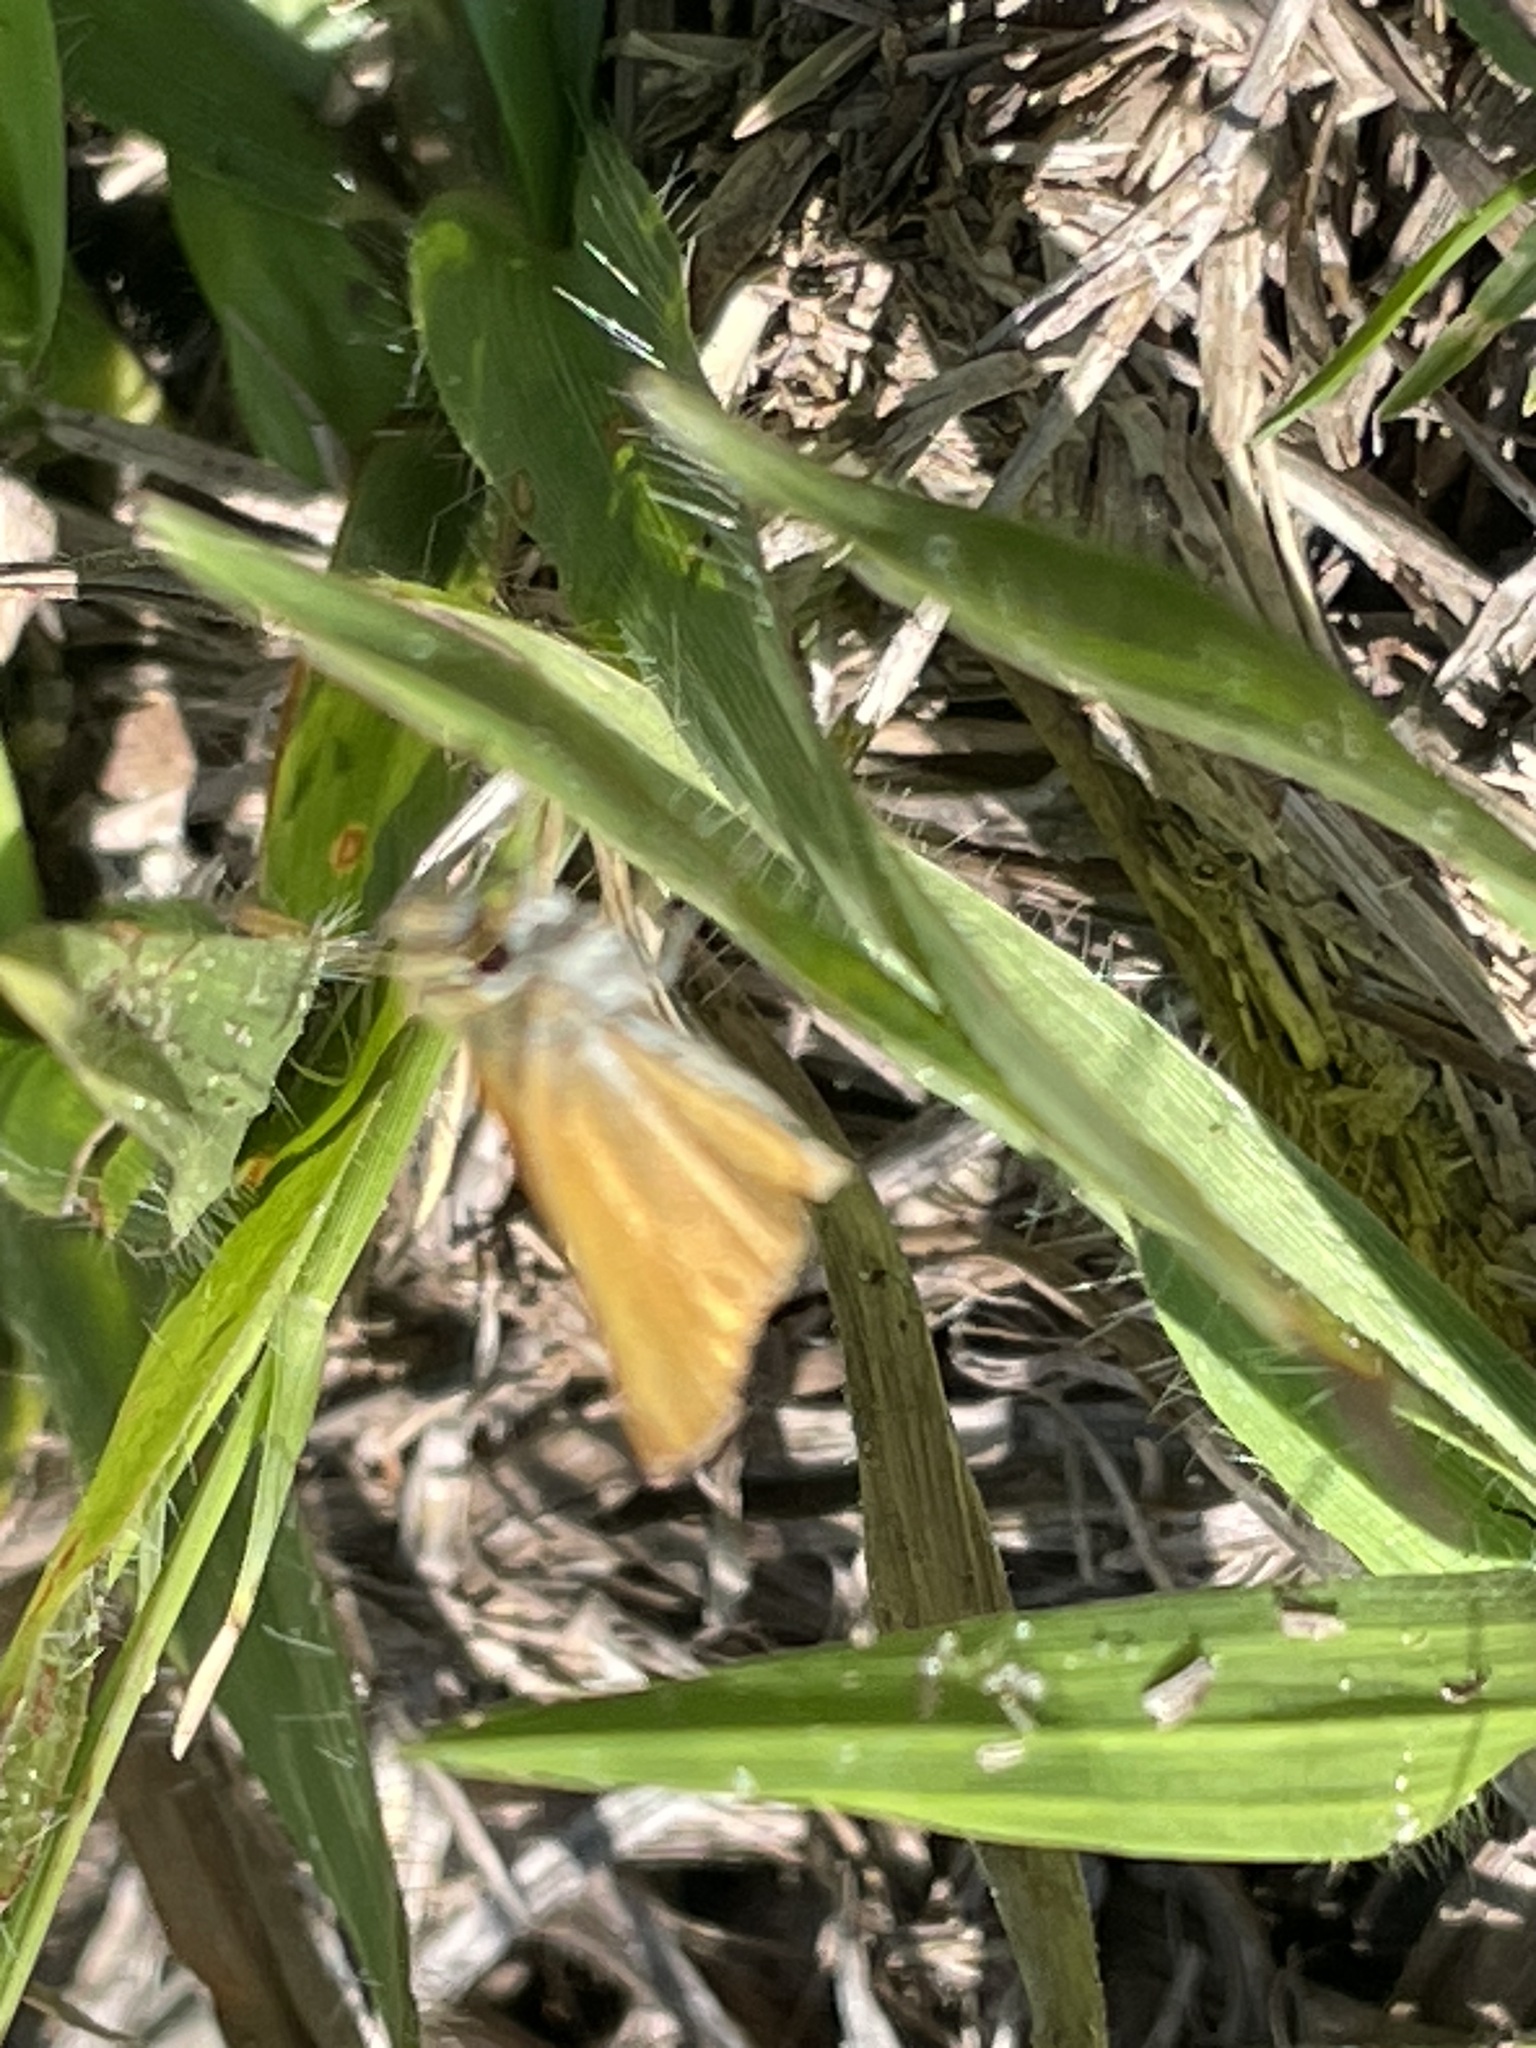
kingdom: Animalia
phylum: Arthropoda
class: Insecta
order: Lepidoptera
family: Hesperiidae
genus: Copaeodes
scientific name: Copaeodes minima
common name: Southern skipperling
